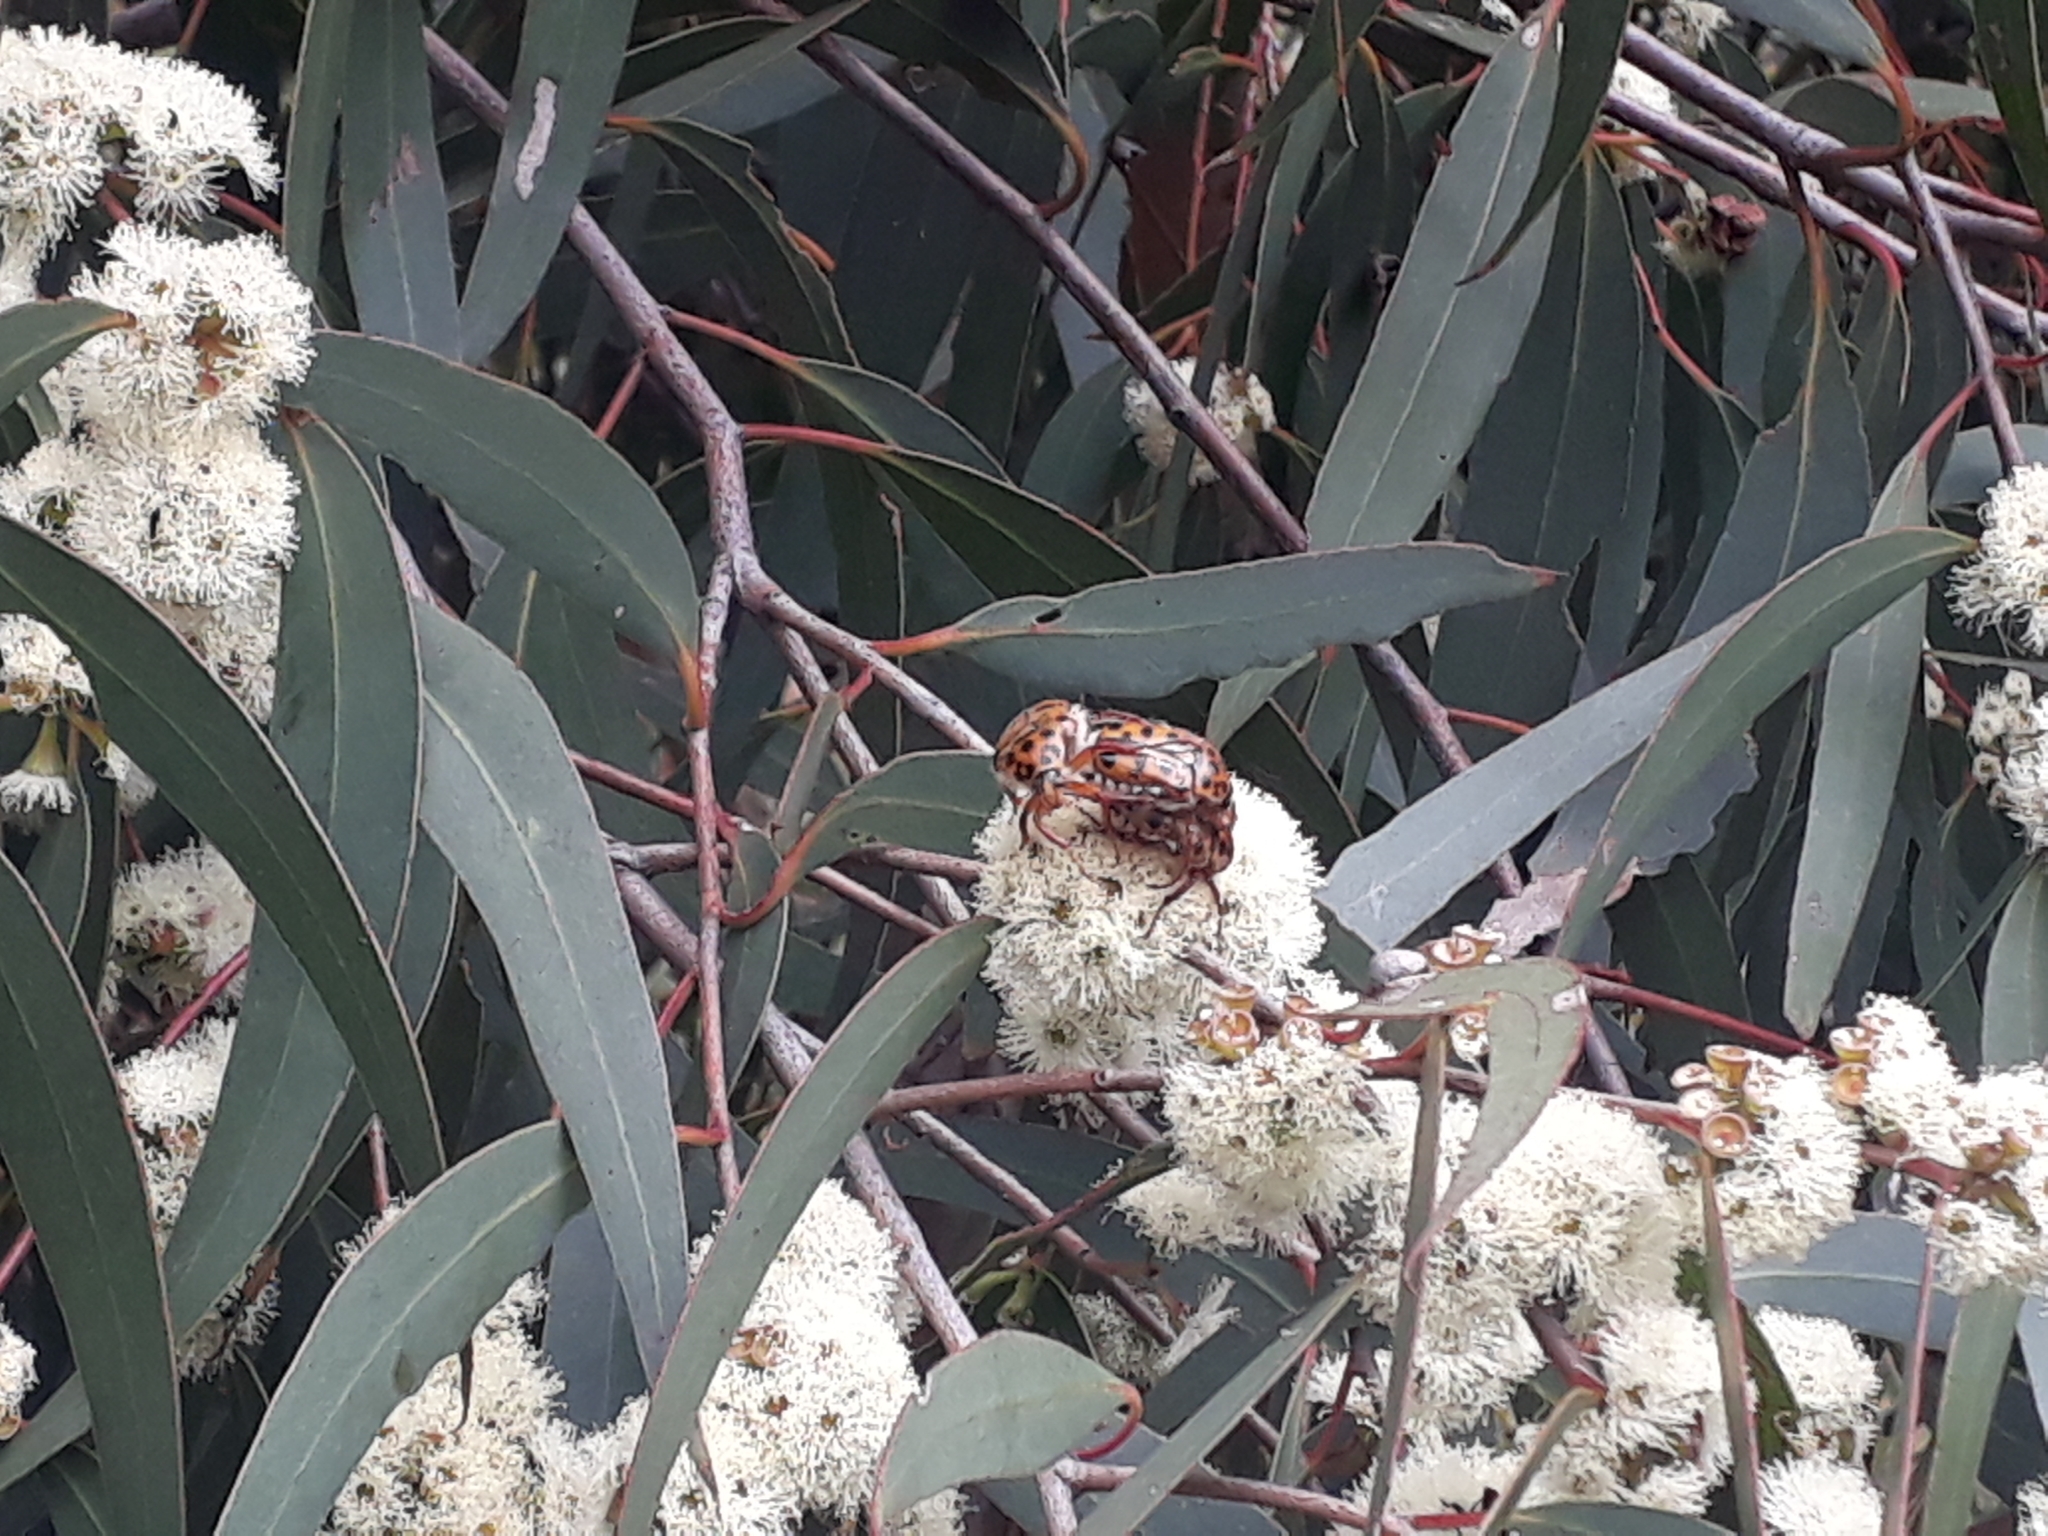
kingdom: Animalia
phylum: Arthropoda
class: Insecta
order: Coleoptera
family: Scarabaeidae
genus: Neorrhina
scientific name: Neorrhina punctatum
